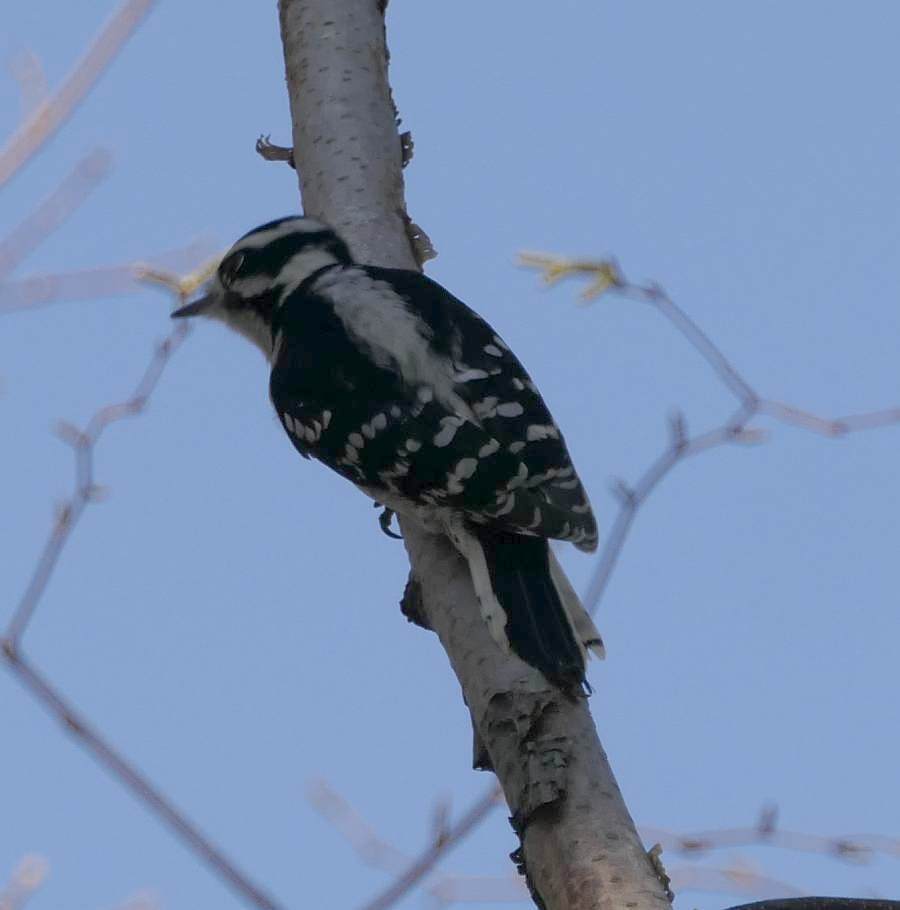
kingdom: Animalia
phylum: Chordata
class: Aves
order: Piciformes
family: Picidae
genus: Dryobates
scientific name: Dryobates pubescens
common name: Downy woodpecker
